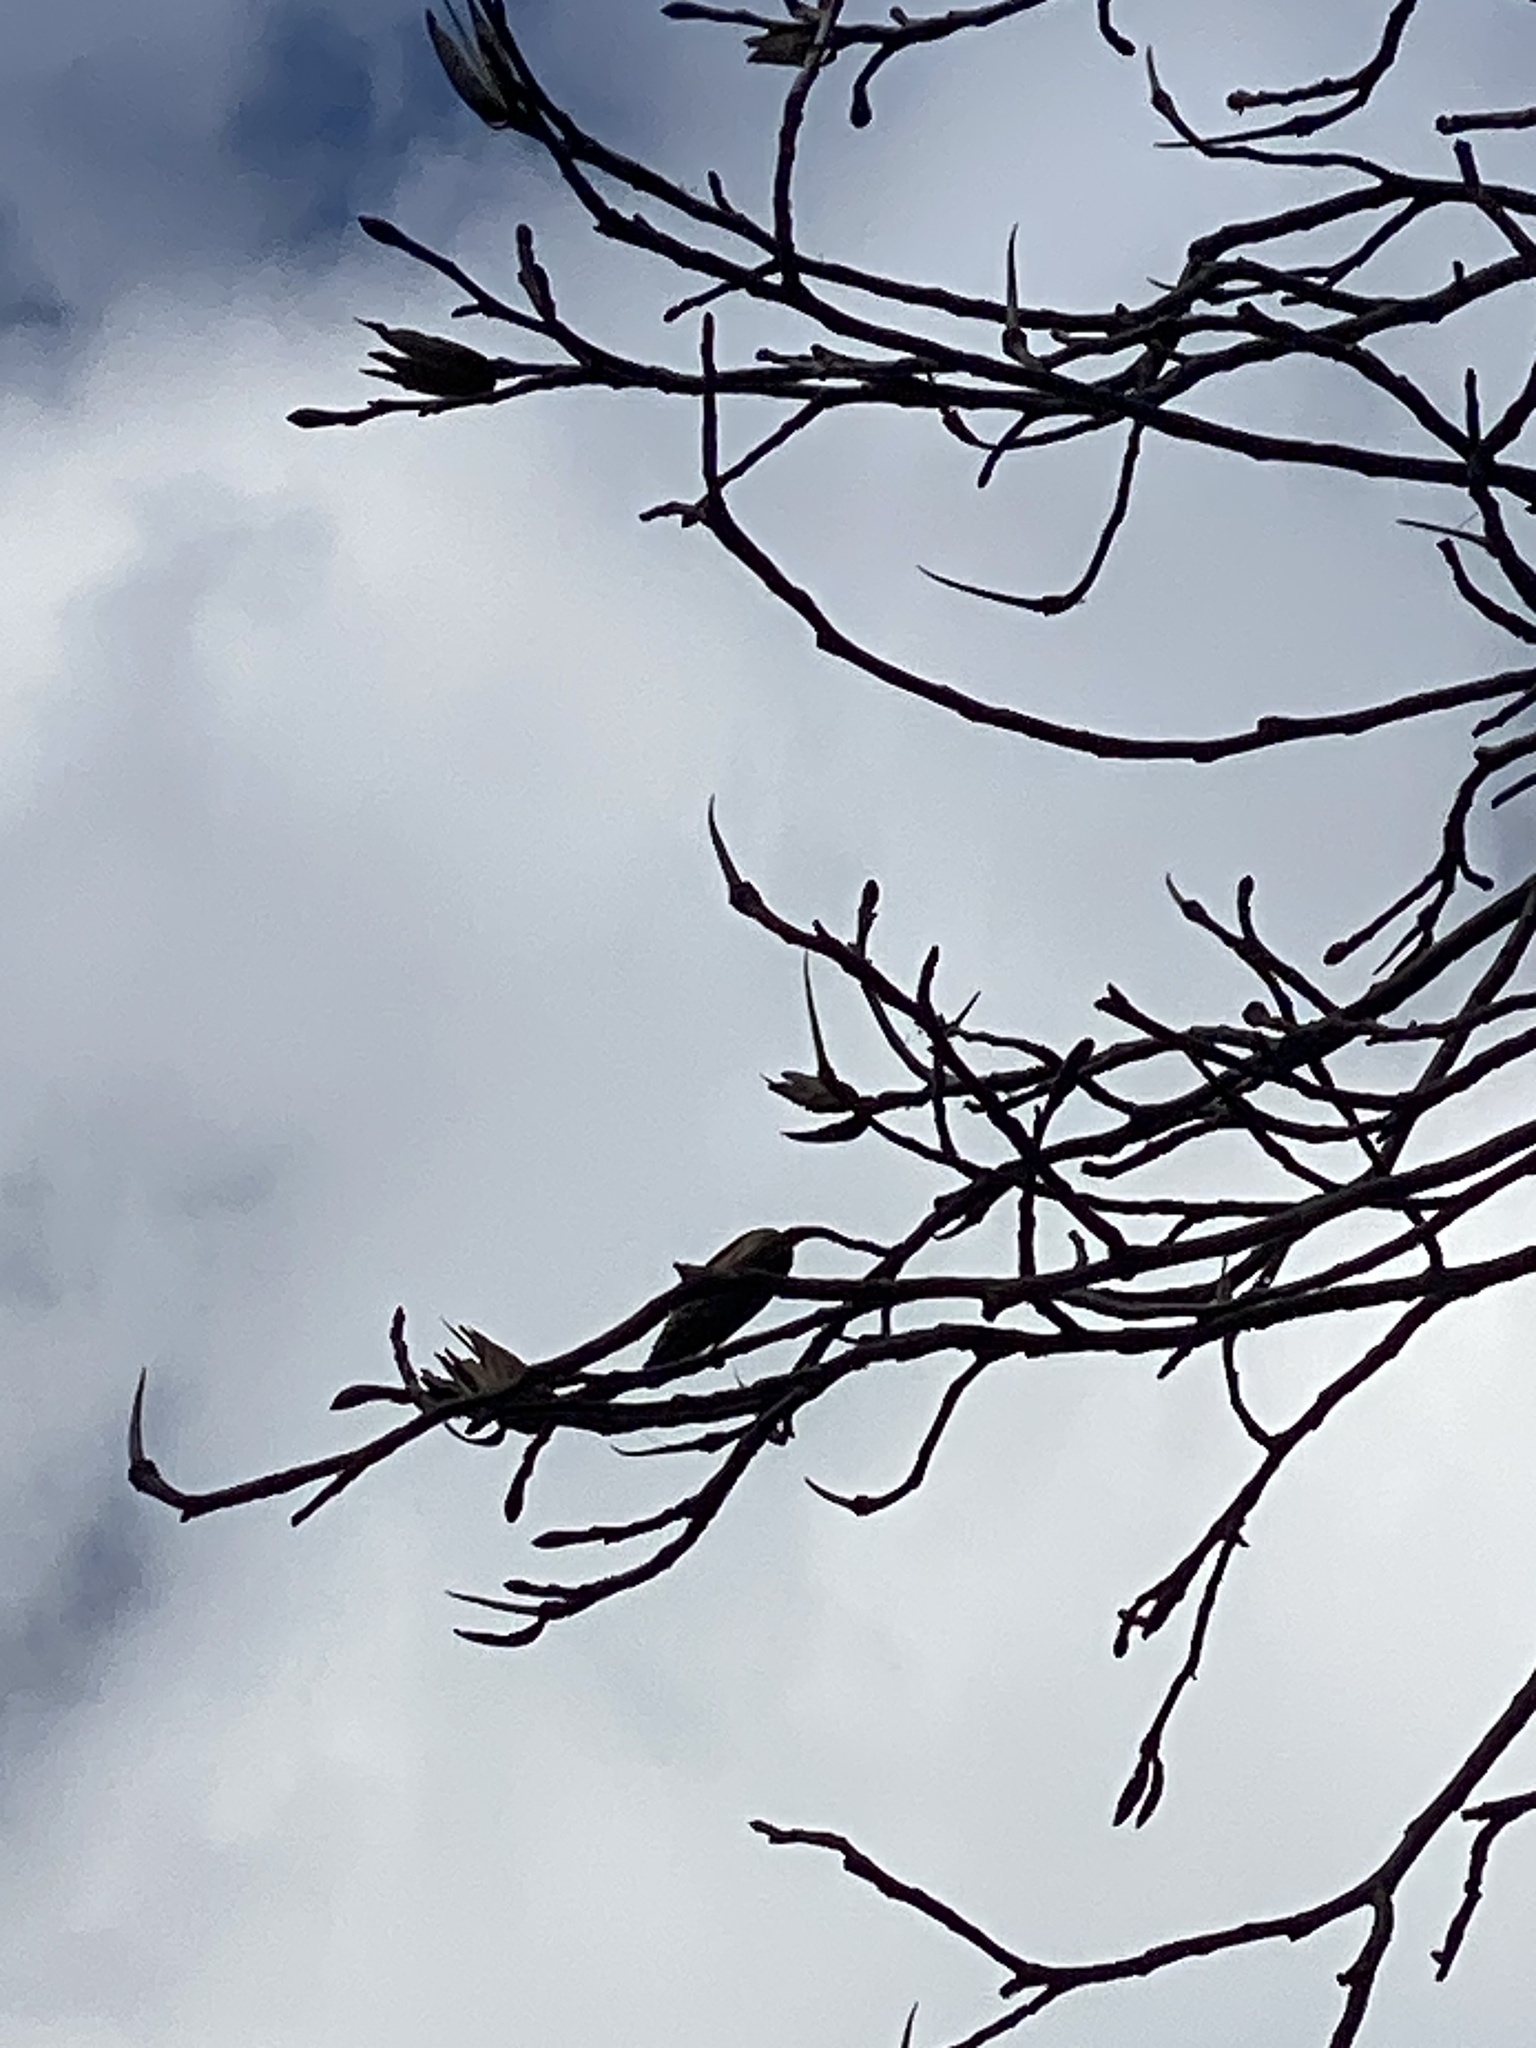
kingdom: Plantae
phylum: Tracheophyta
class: Magnoliopsida
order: Magnoliales
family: Magnoliaceae
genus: Liriodendron
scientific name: Liriodendron tulipifera
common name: Tulip tree
